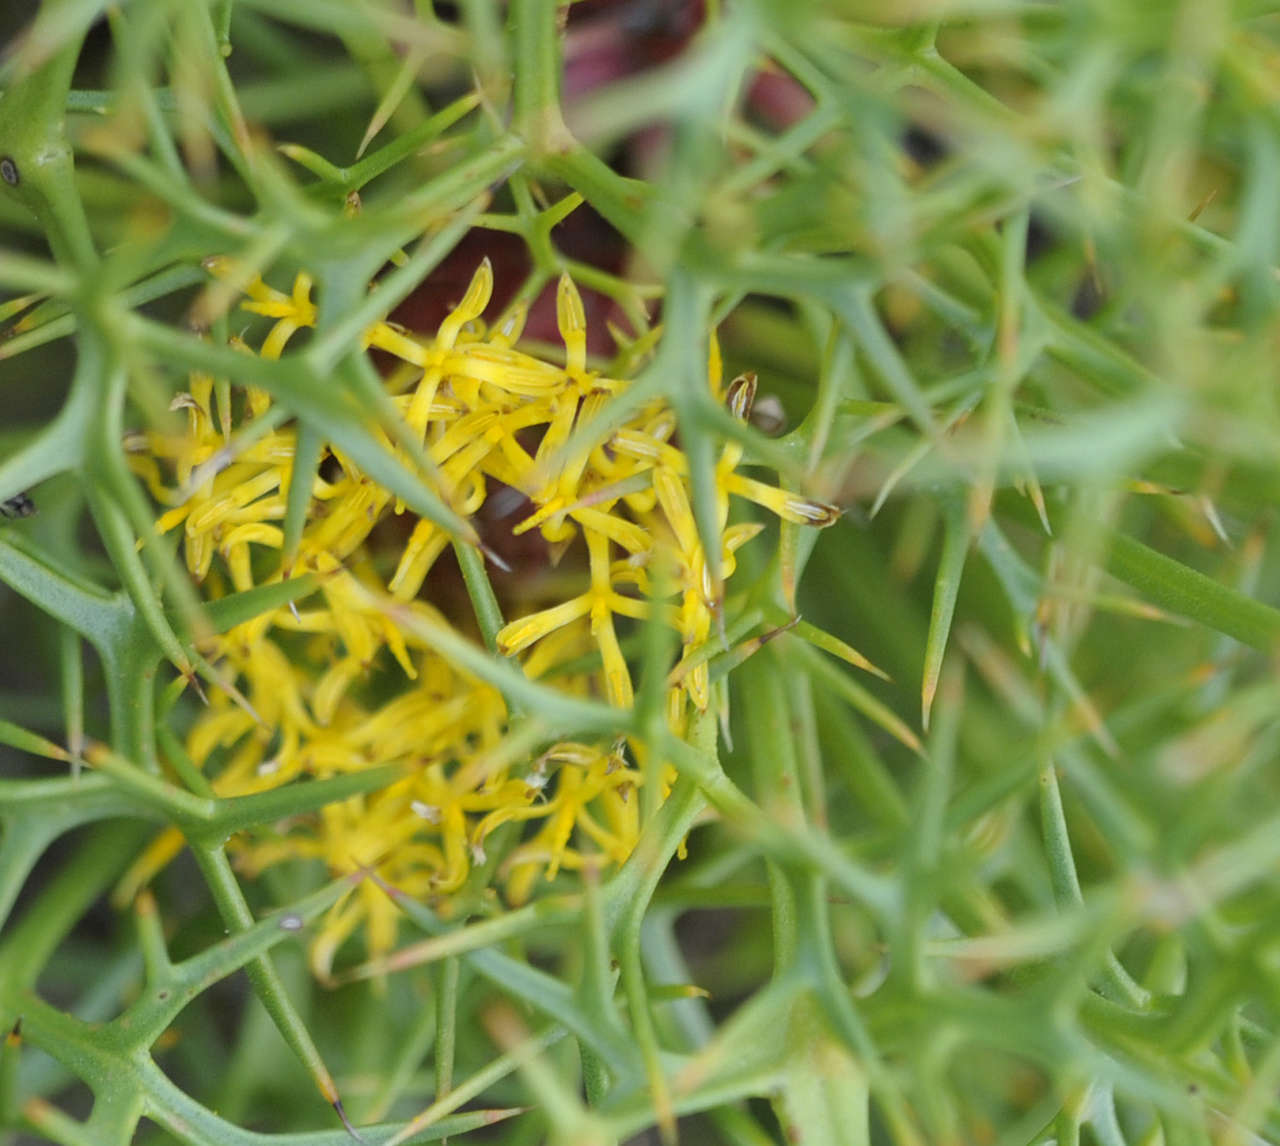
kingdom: Plantae
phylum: Tracheophyta
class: Magnoliopsida
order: Proteales
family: Proteaceae
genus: Isopogon
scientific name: Isopogon ceratophyllus
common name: Horny cone-bush
